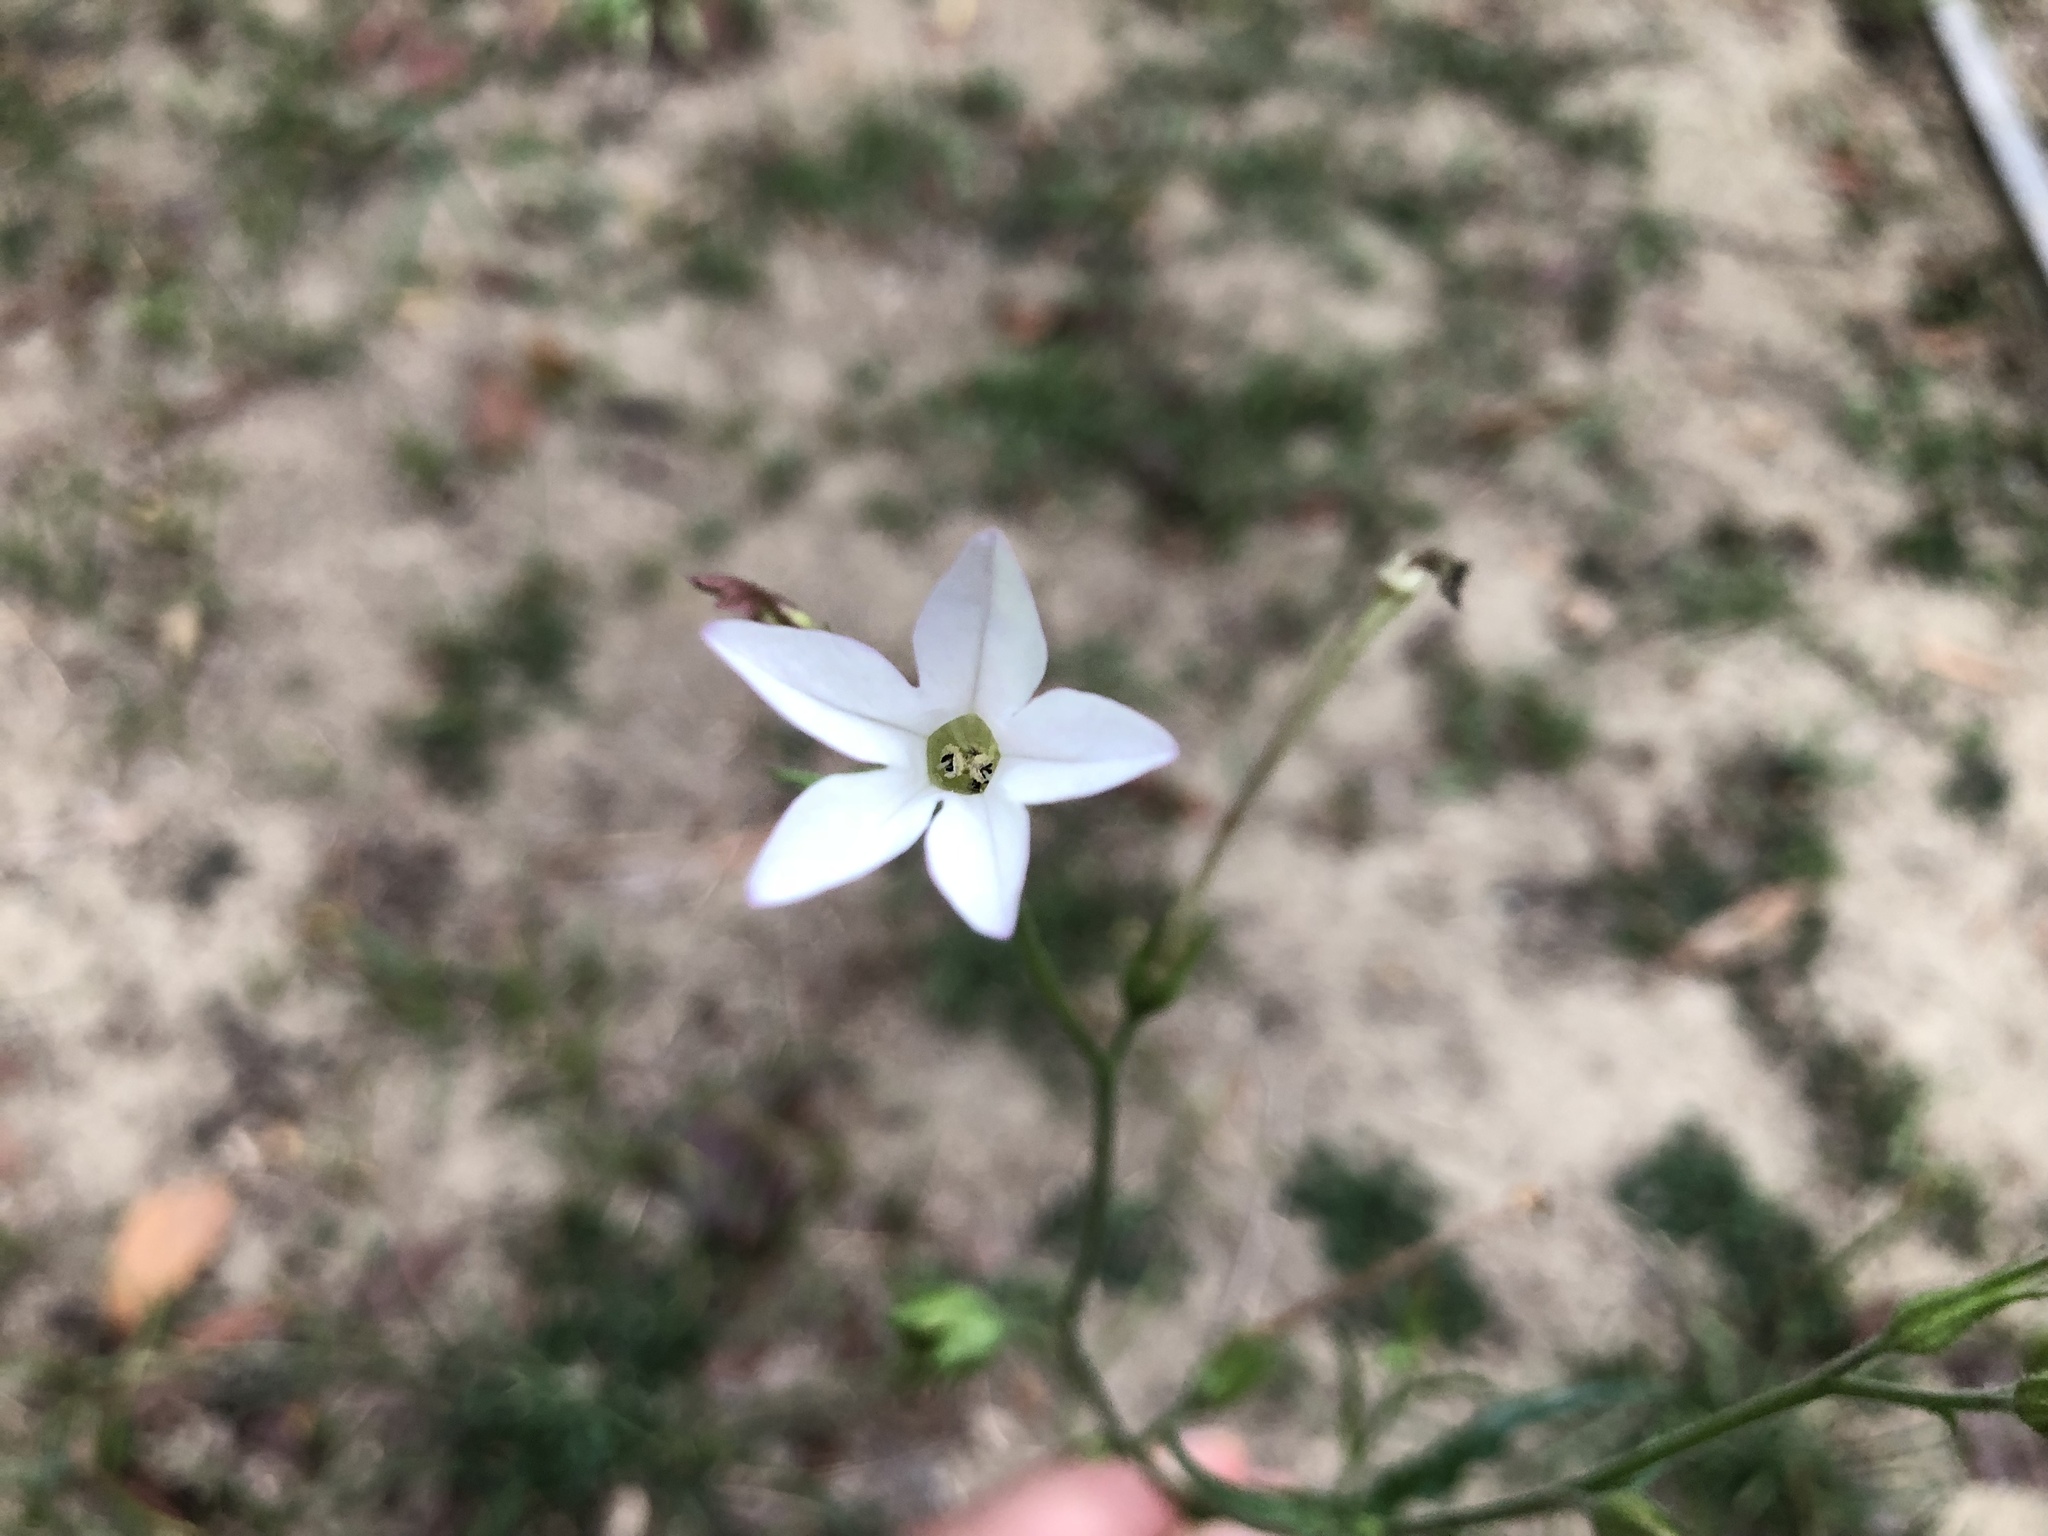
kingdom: Plantae
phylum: Tracheophyta
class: Magnoliopsida
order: Solanales
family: Solanaceae
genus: Nicotiana
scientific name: Nicotiana plumbaginifolia
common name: Tex-mex tobacco
